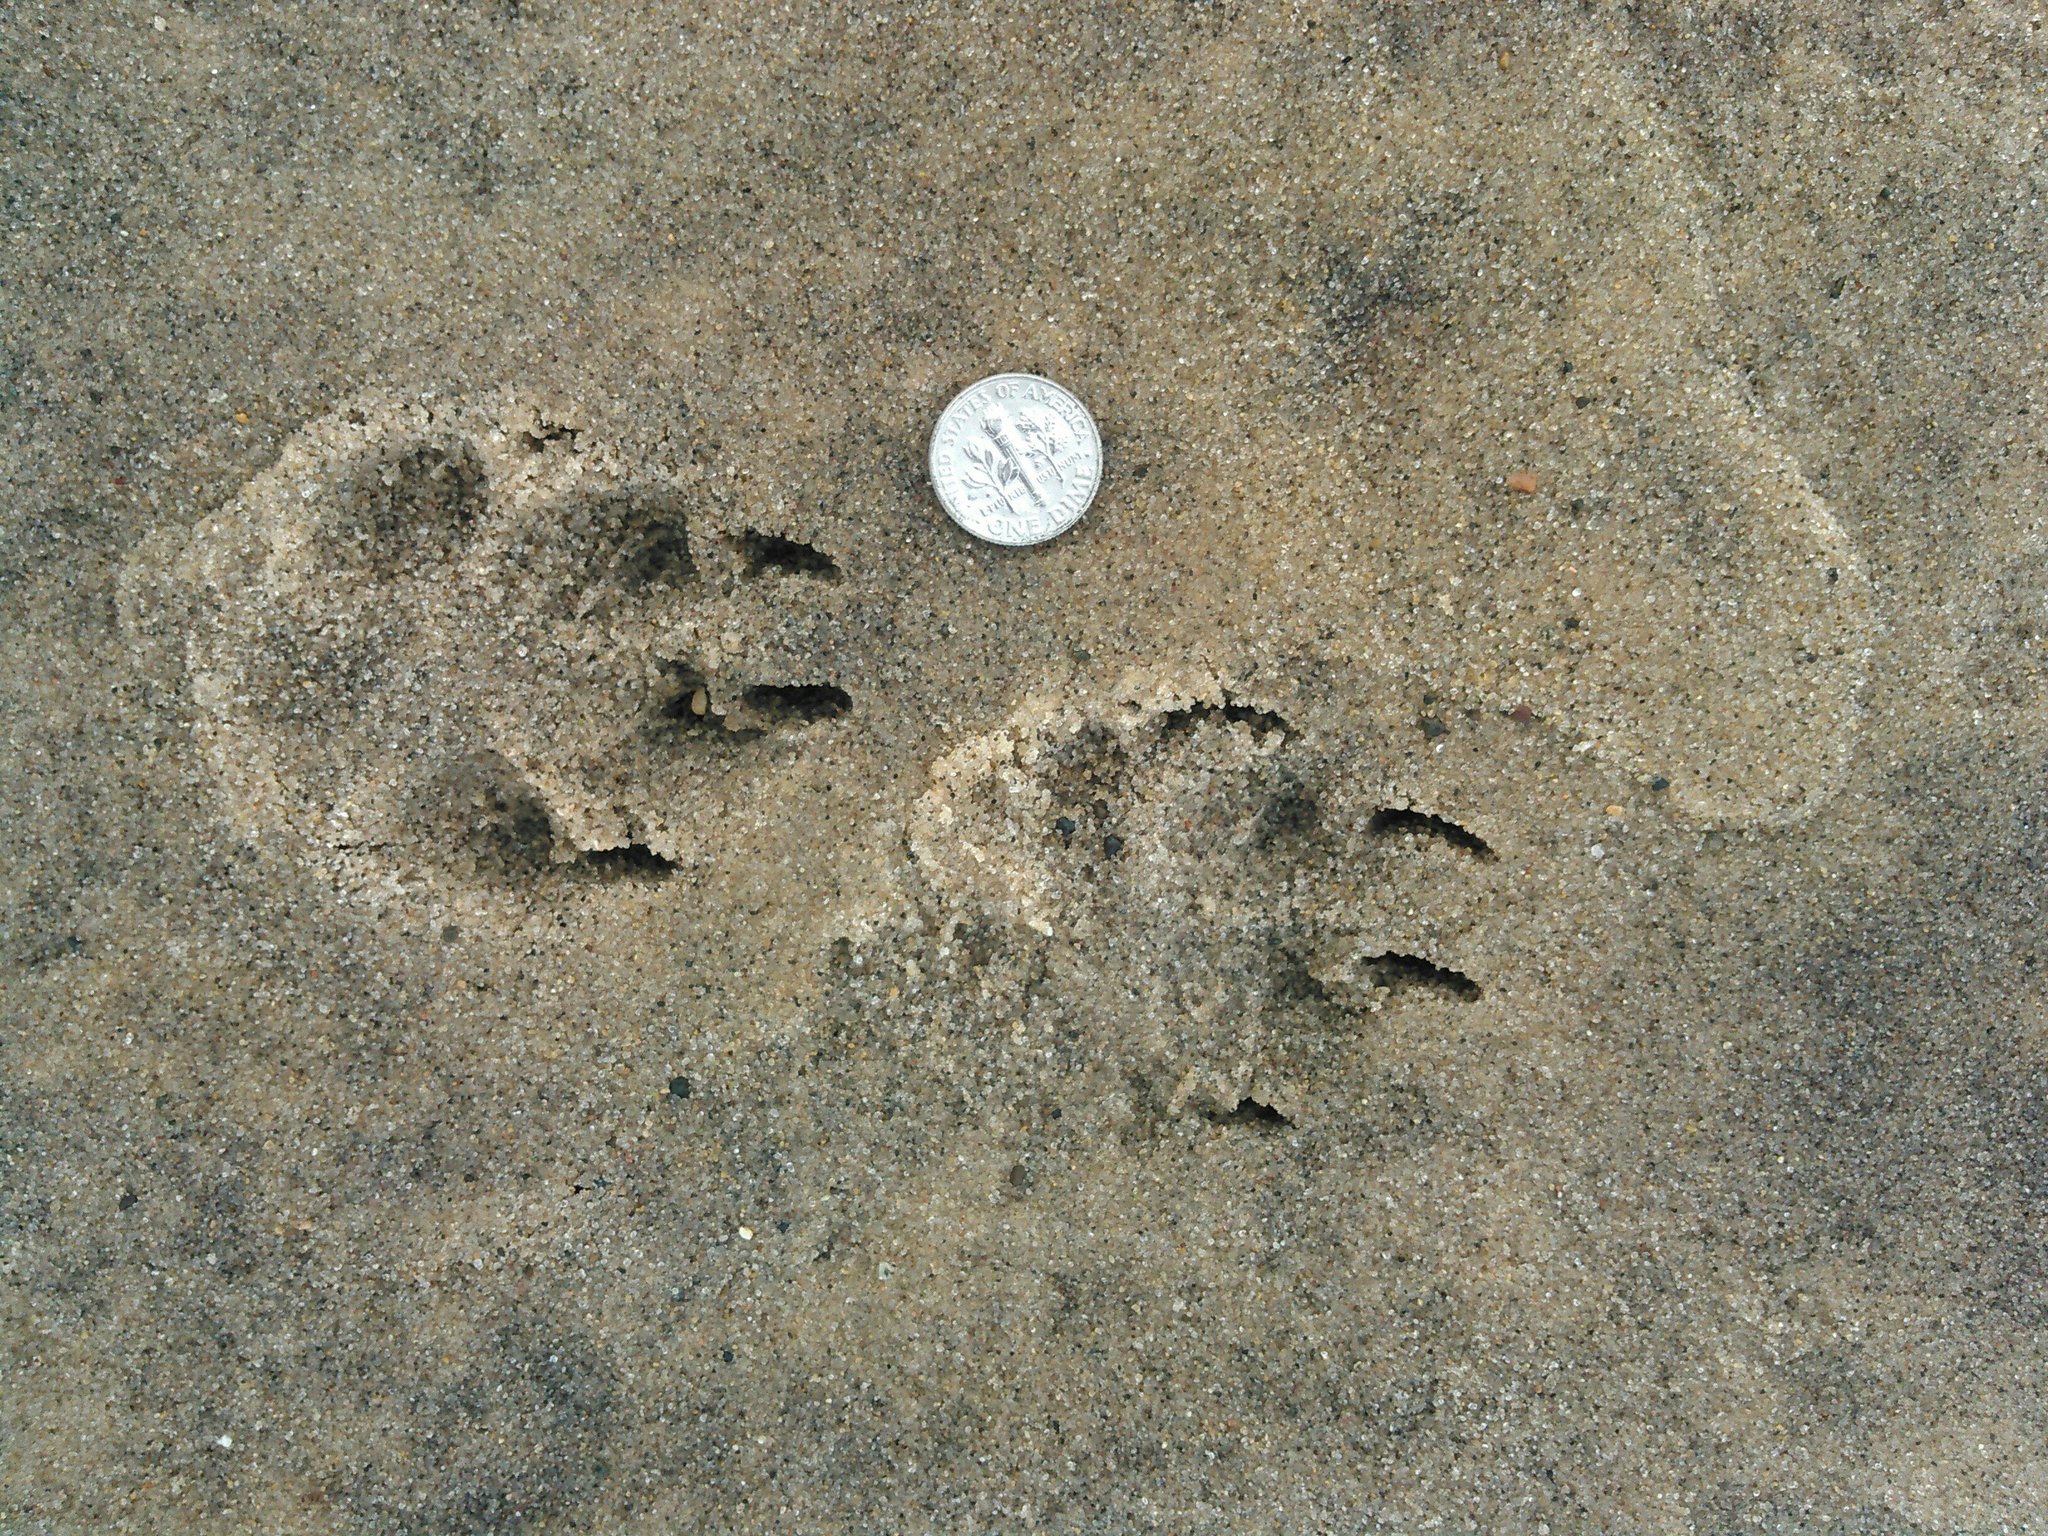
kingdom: Animalia
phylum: Chordata
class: Mammalia
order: Carnivora
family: Canidae
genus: Vulpes
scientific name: Vulpes vulpes
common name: Red fox
